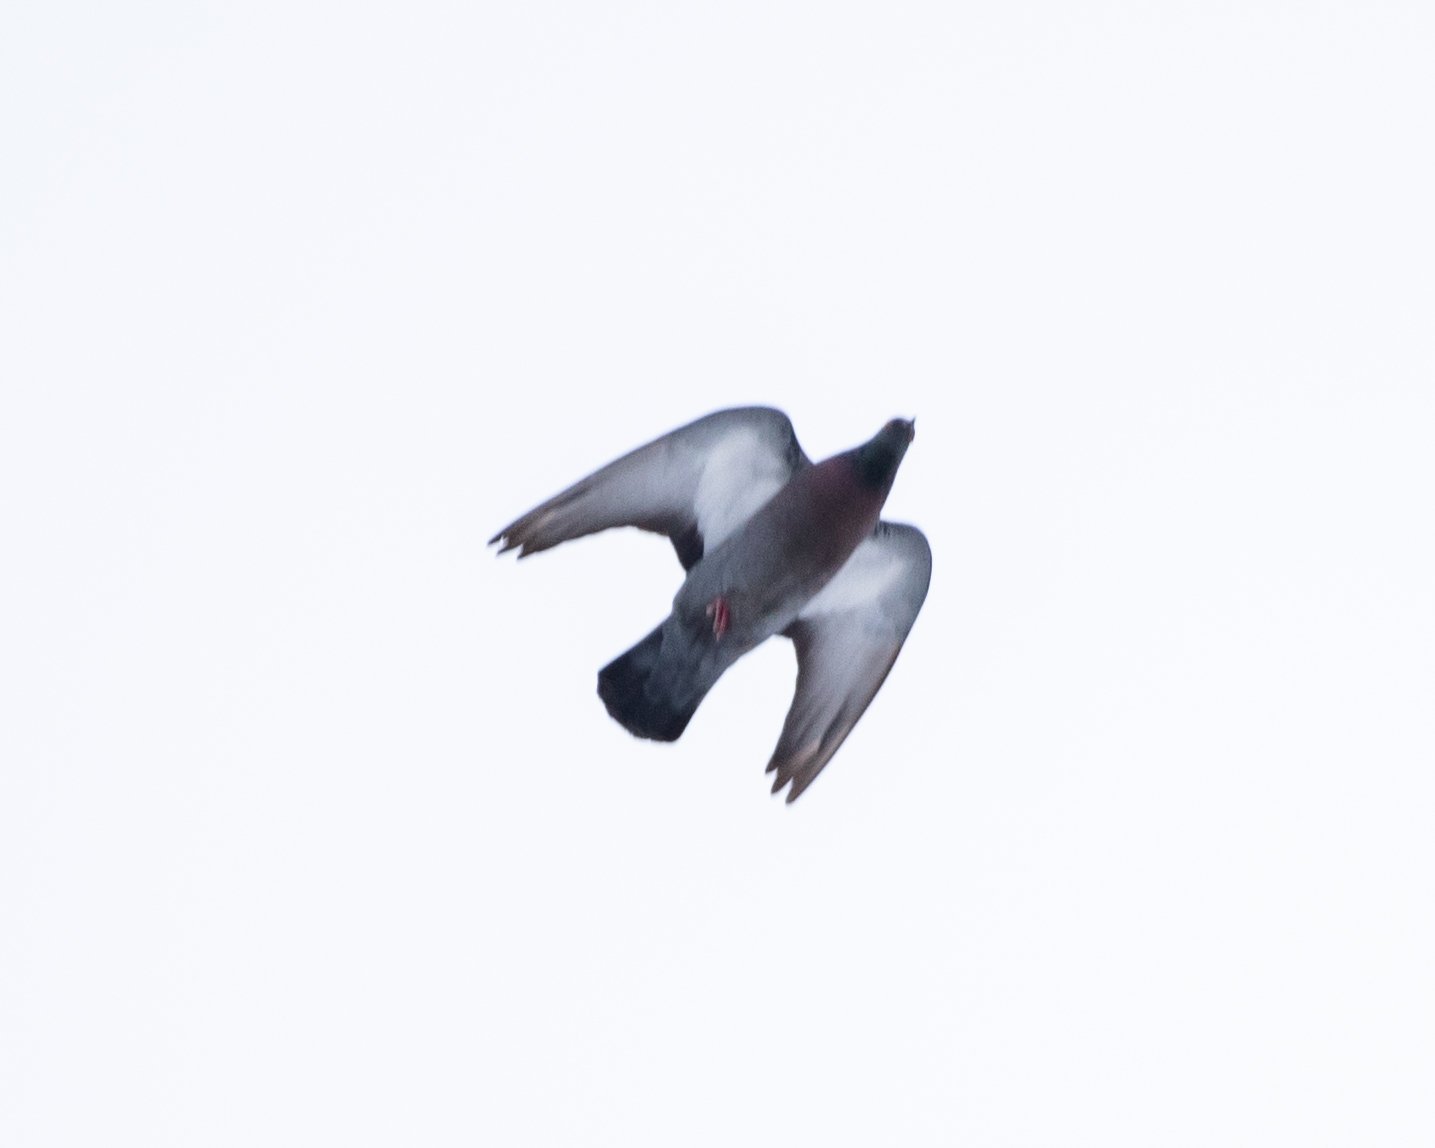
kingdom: Animalia
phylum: Chordata
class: Aves
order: Columbiformes
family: Columbidae
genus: Columba
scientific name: Columba livia
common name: Rock pigeon
